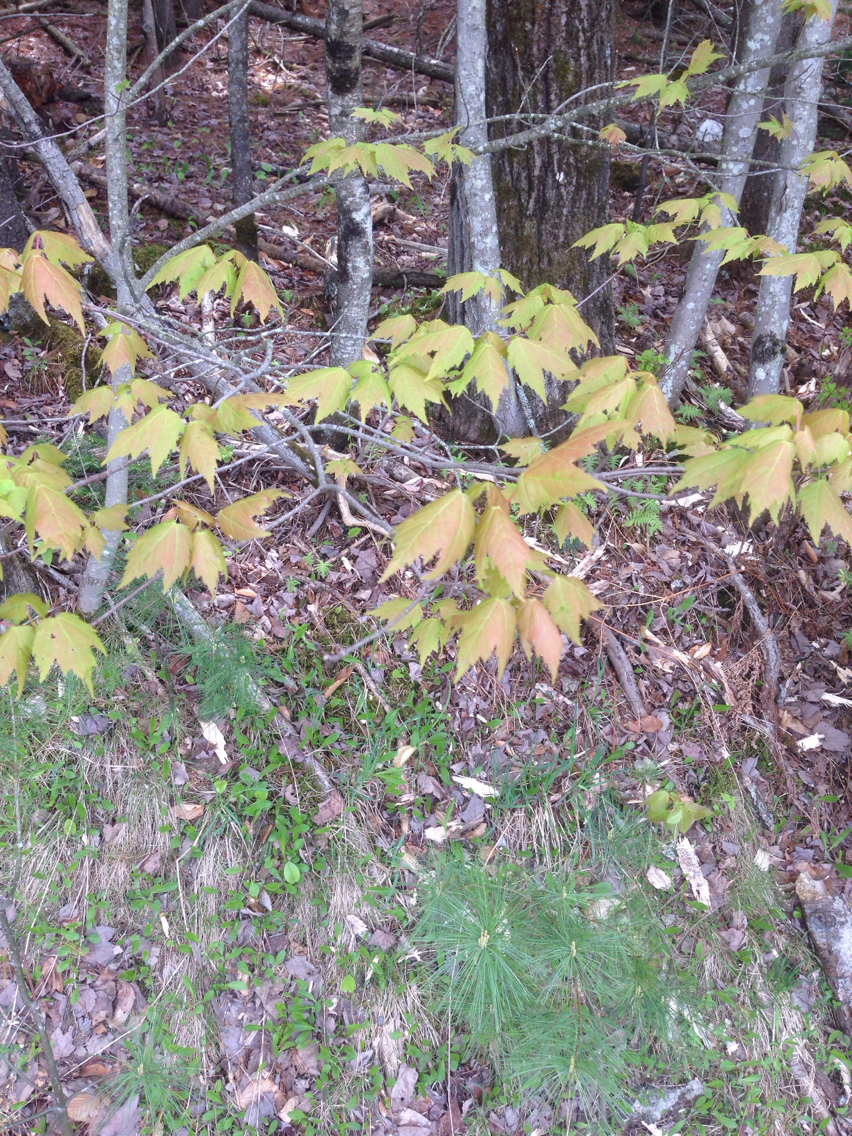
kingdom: Plantae
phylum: Tracheophyta
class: Magnoliopsida
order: Sapindales
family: Sapindaceae
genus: Acer
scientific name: Acer rubrum
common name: Red maple
